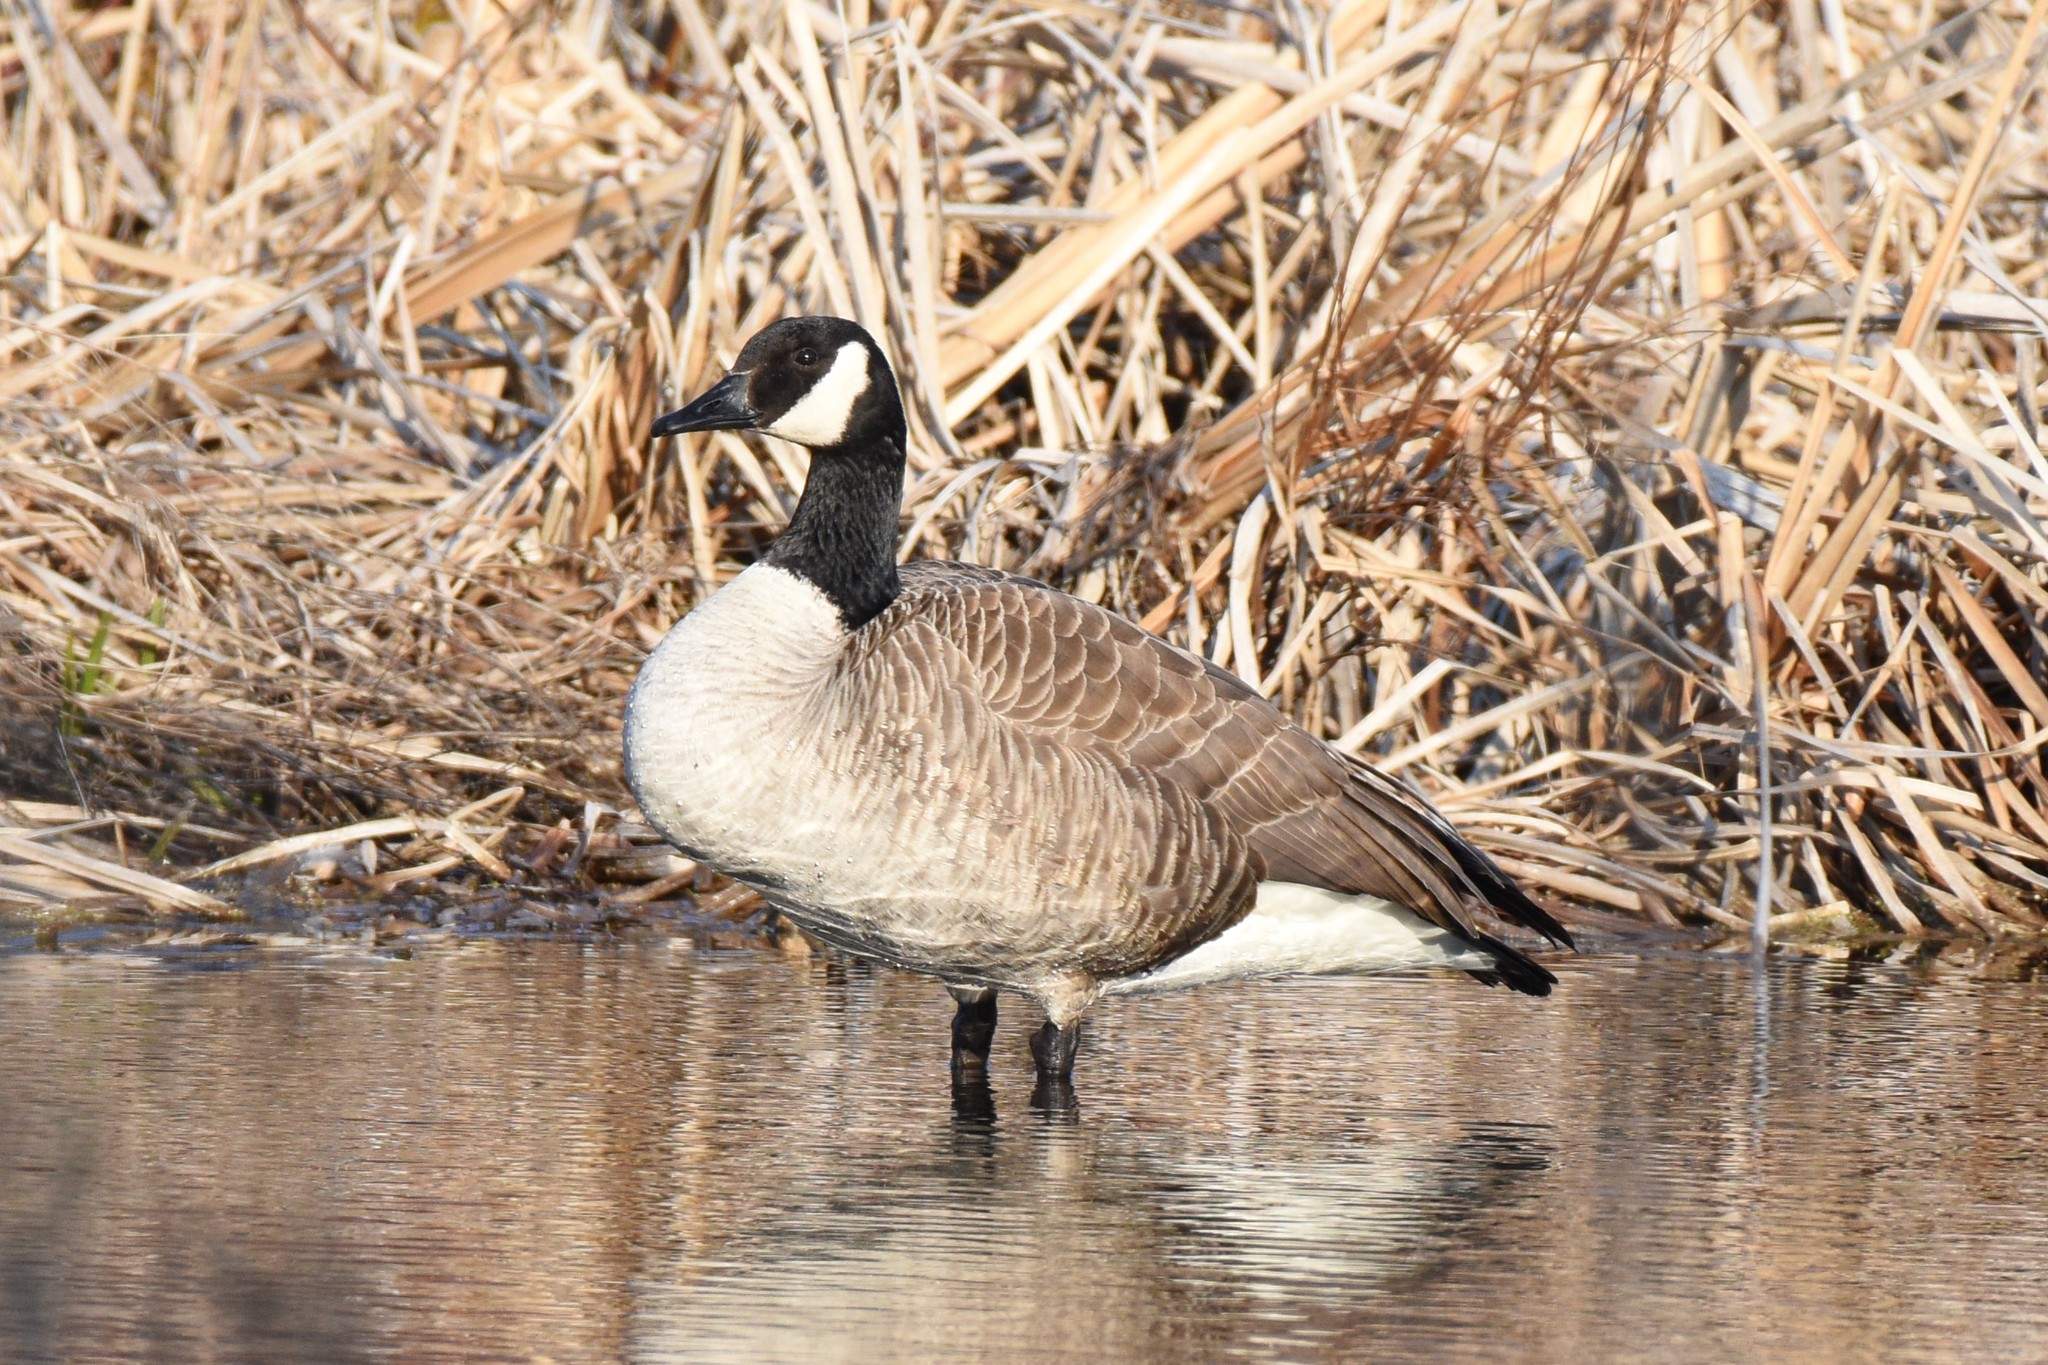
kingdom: Animalia
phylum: Chordata
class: Aves
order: Anseriformes
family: Anatidae
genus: Branta
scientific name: Branta canadensis
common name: Canada goose
